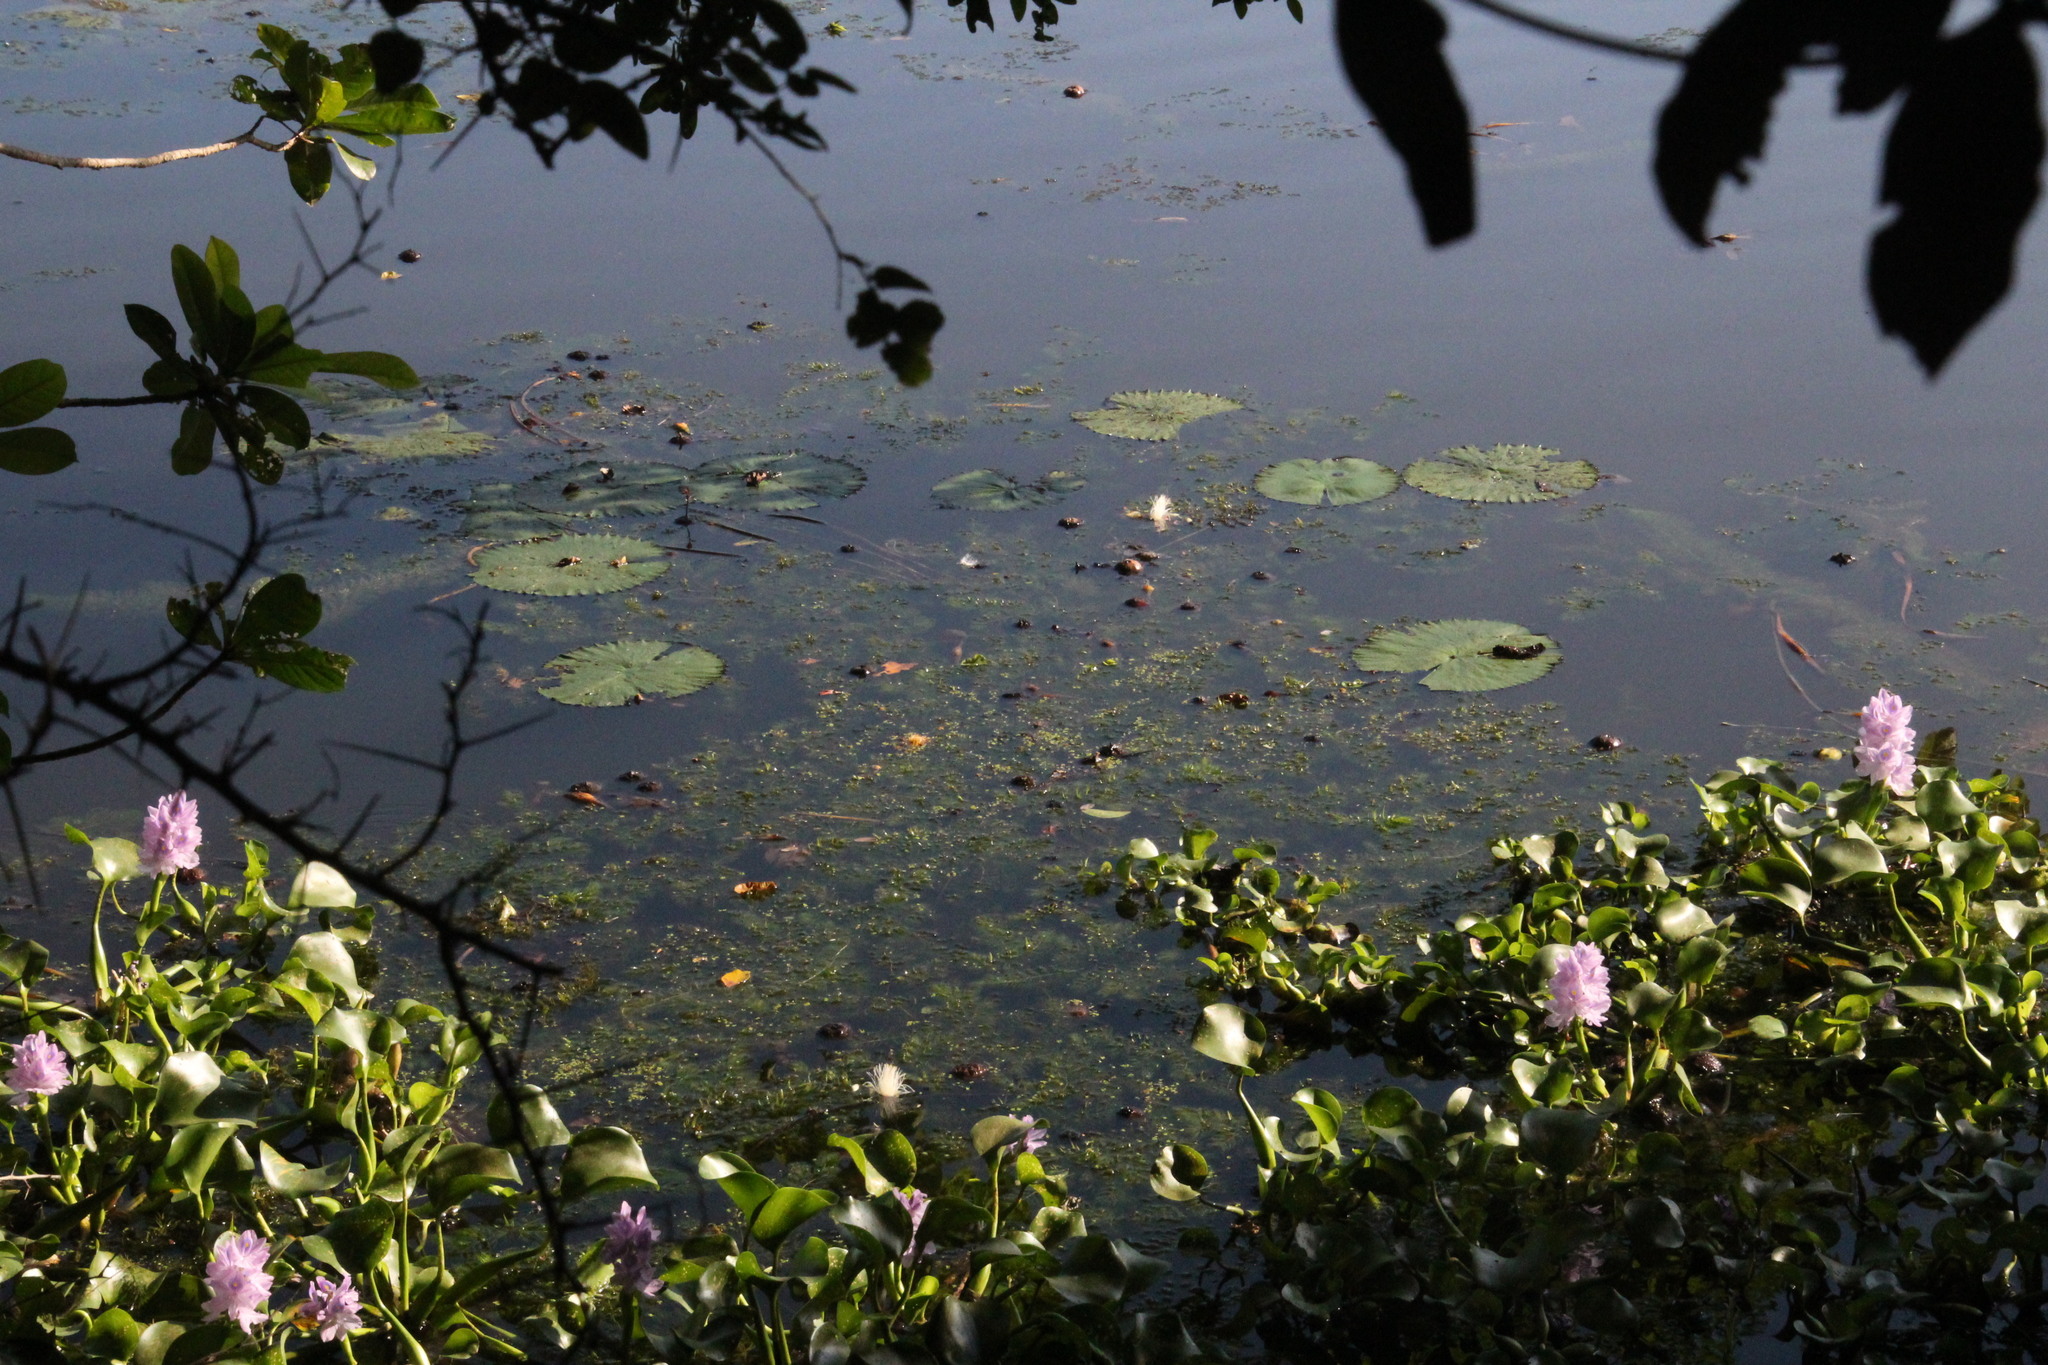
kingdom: Plantae
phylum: Tracheophyta
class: Magnoliopsida
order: Ceratophyllales
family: Ceratophyllaceae
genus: Ceratophyllum
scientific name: Ceratophyllum demersum
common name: Rigid hornwort
